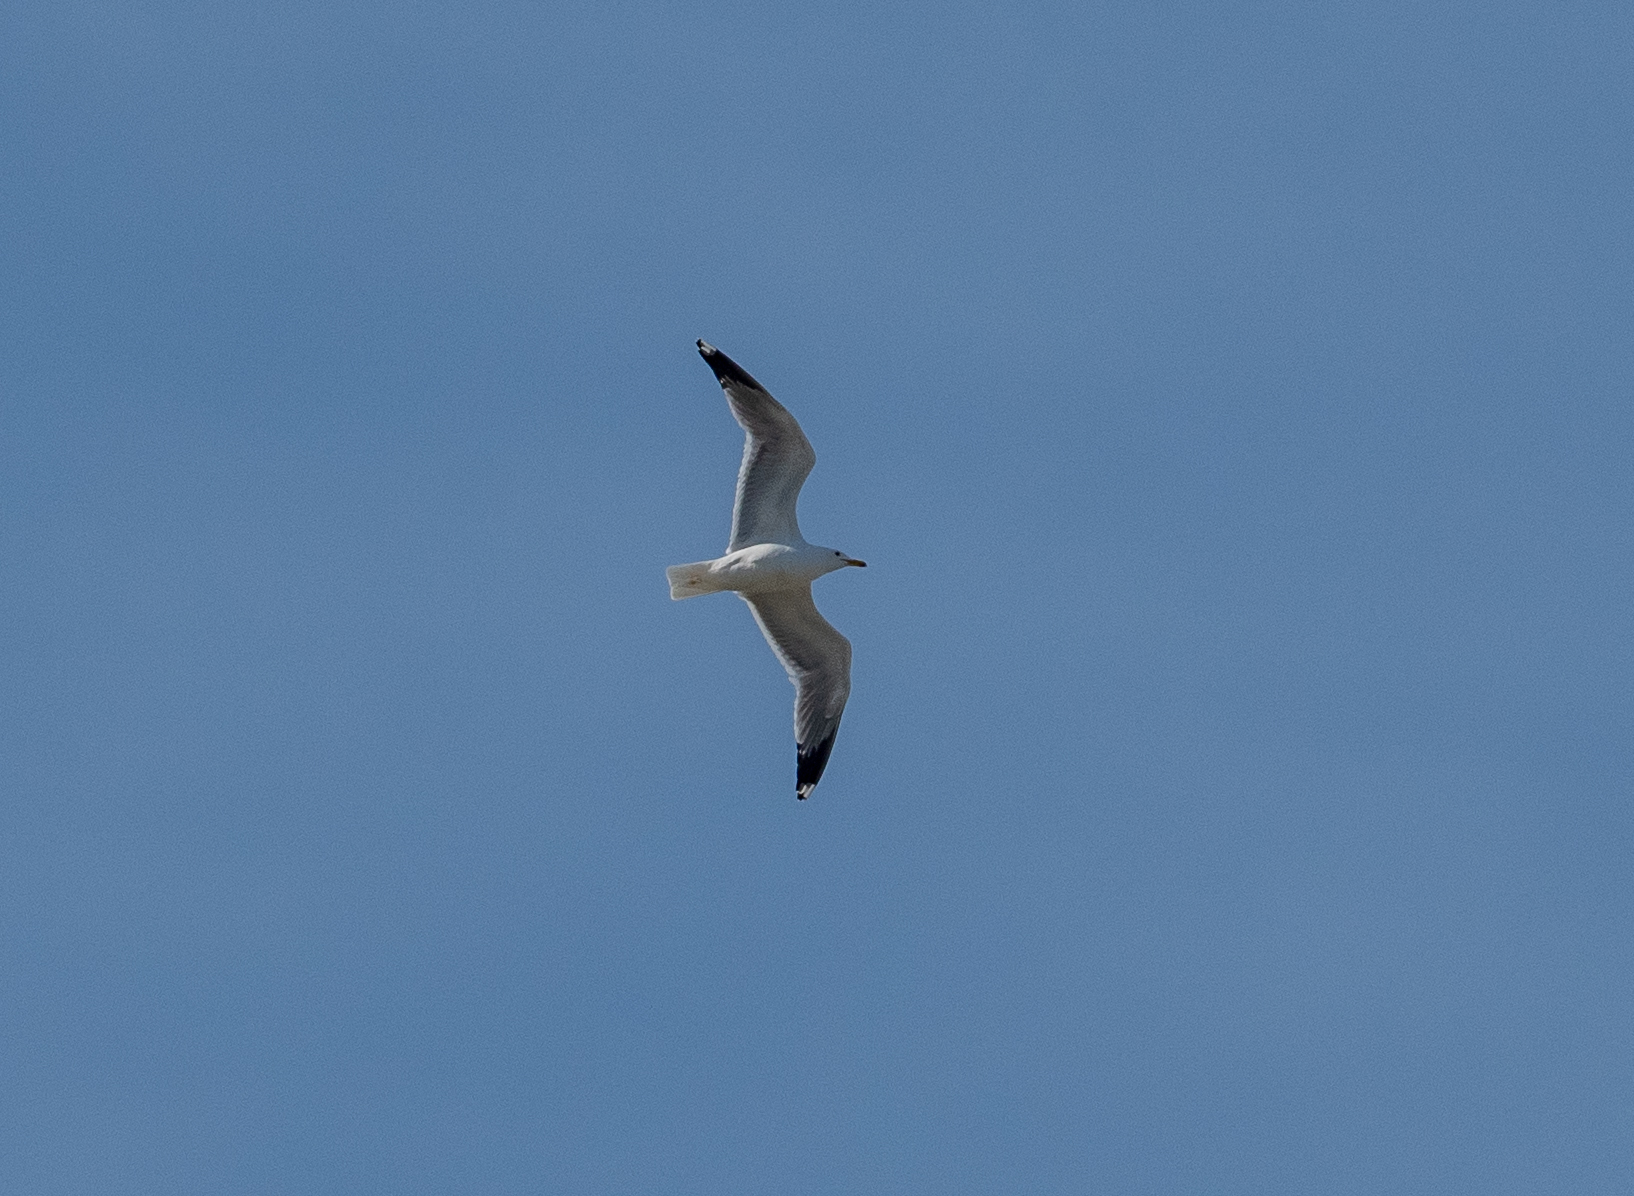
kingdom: Animalia
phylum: Chordata
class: Aves
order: Charadriiformes
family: Laridae
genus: Larus
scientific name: Larus californicus
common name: California gull
